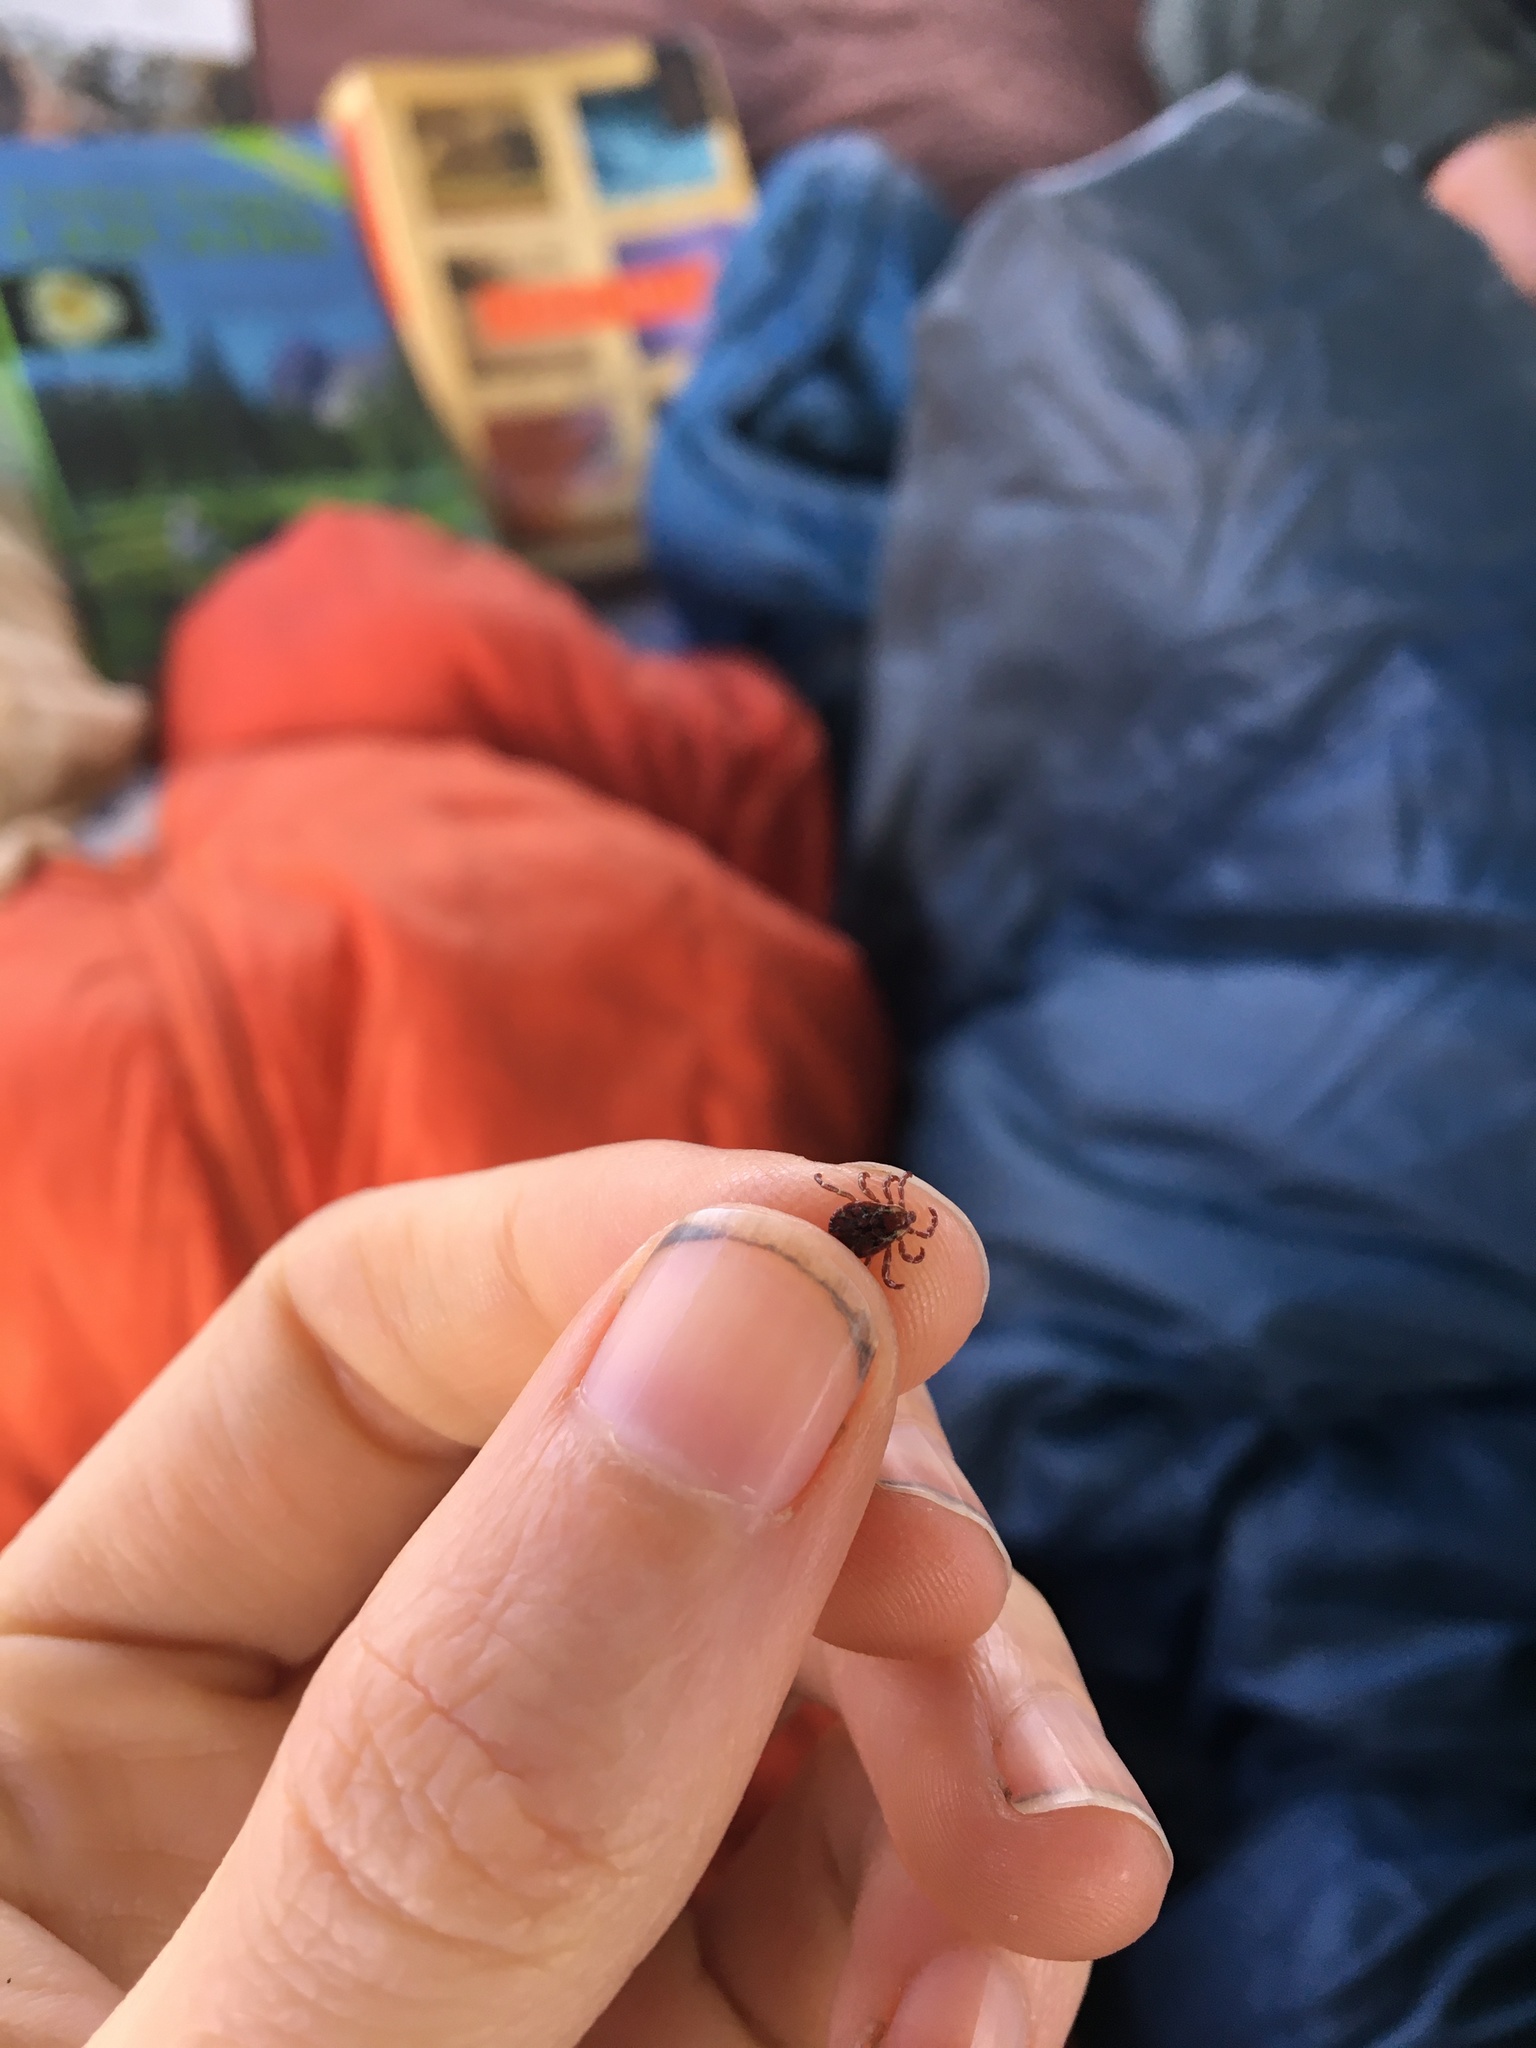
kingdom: Animalia
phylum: Arthropoda
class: Arachnida
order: Ixodida
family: Ixodidae
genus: Dermacentor
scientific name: Dermacentor variabilis
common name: American dog tick
